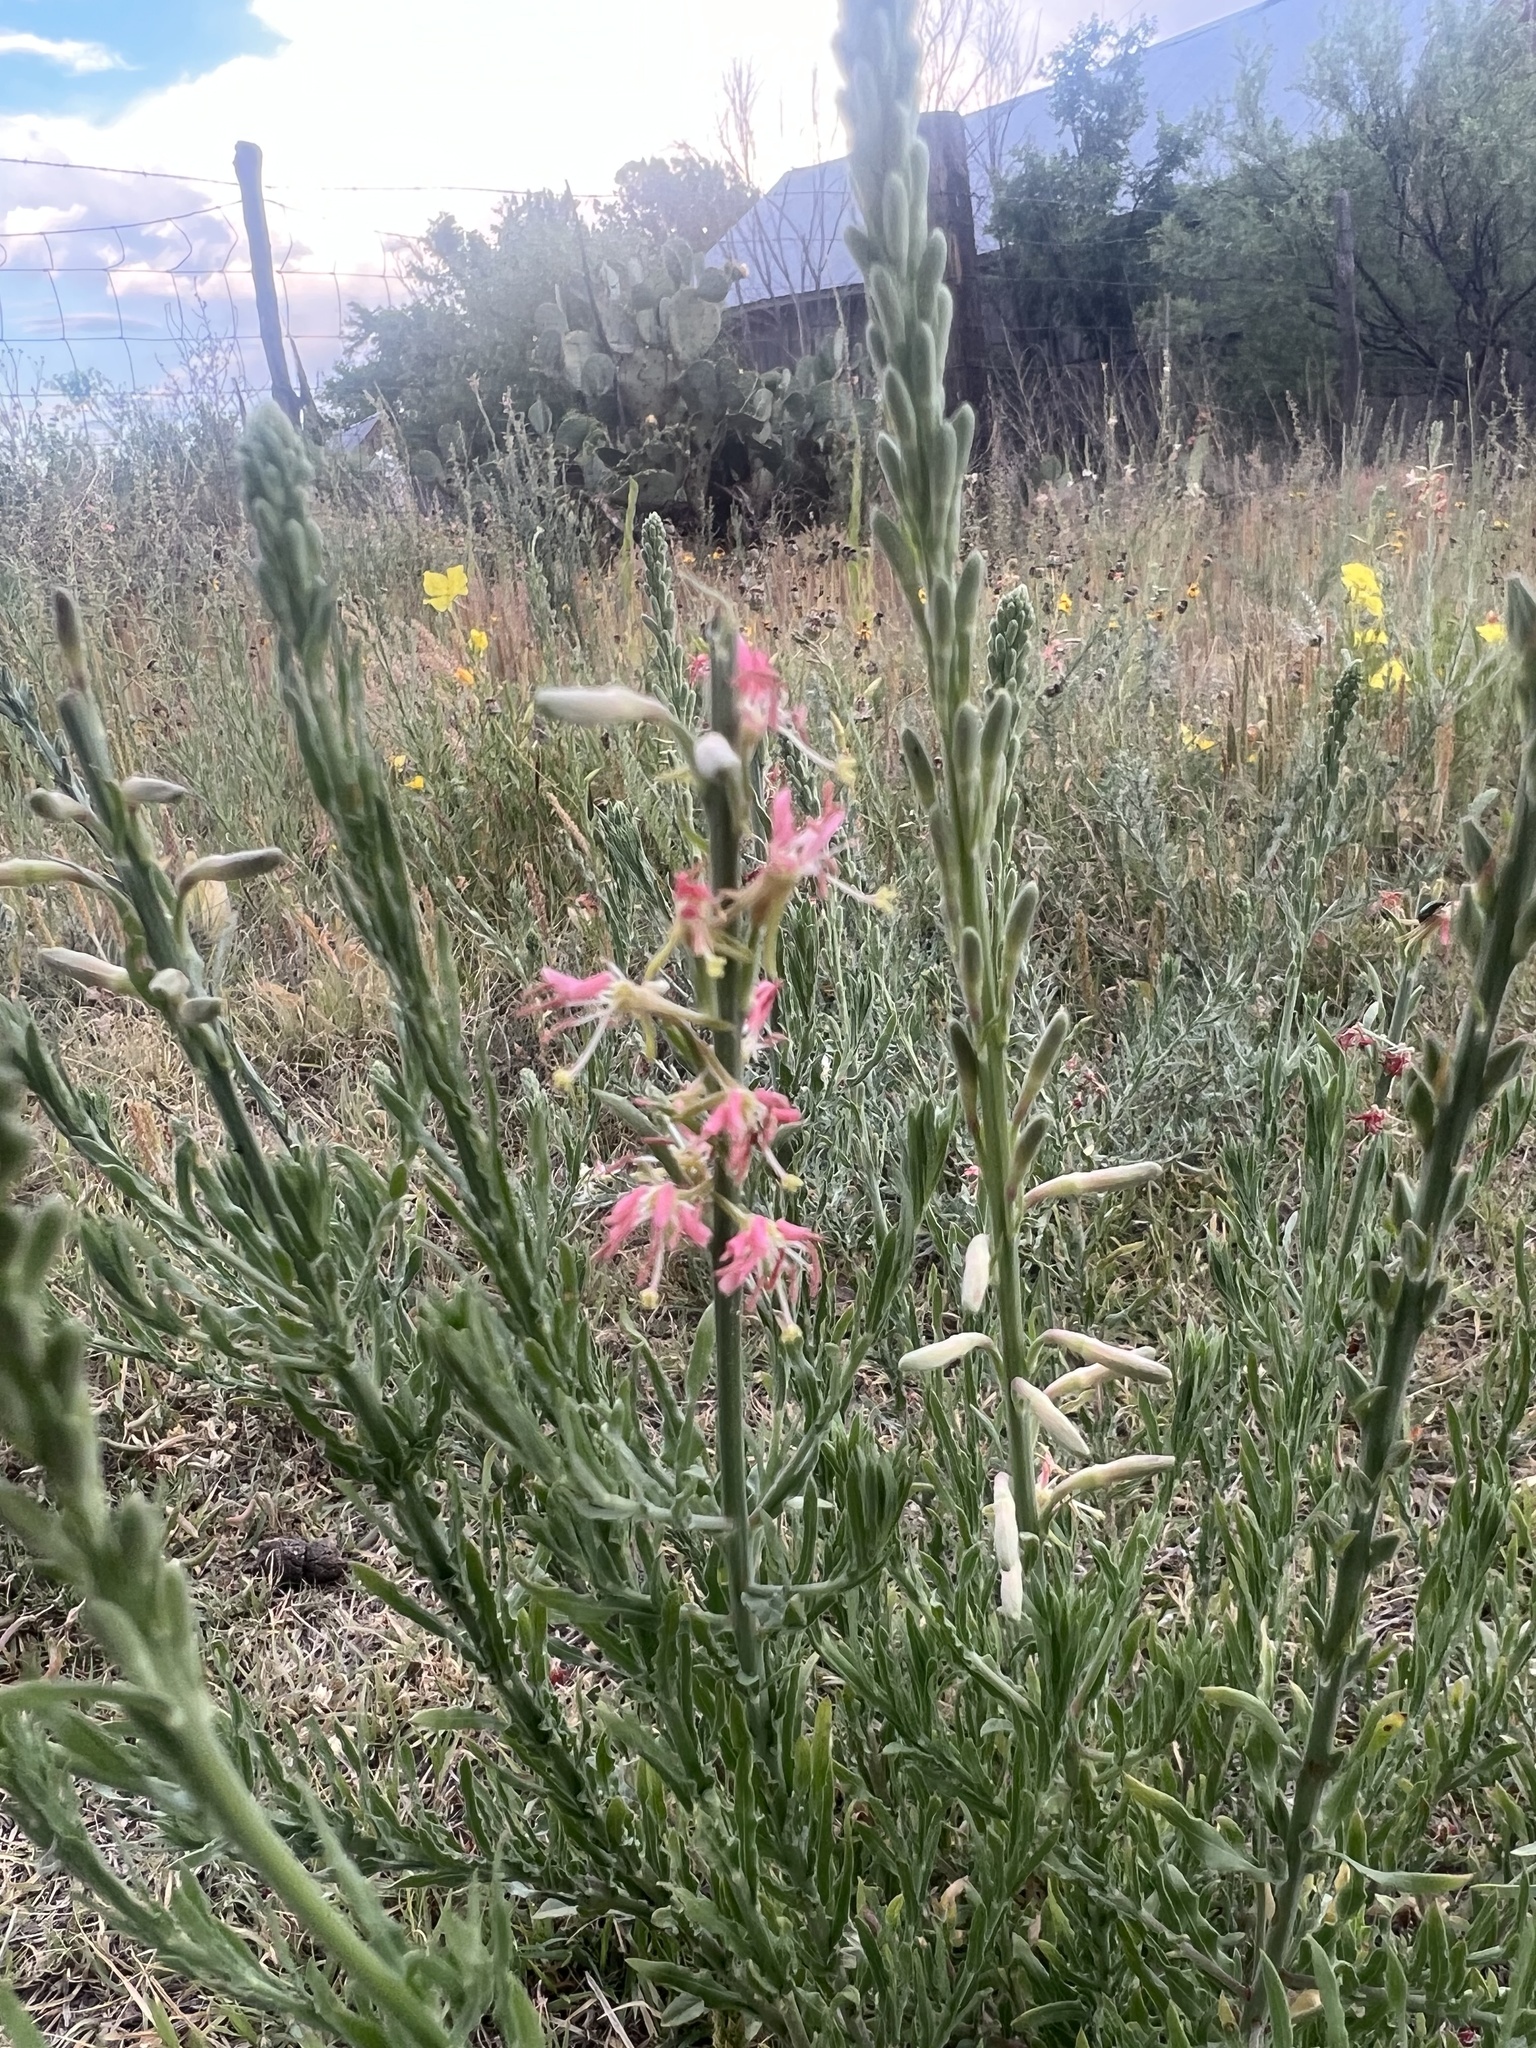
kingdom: Plantae
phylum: Tracheophyta
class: Magnoliopsida
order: Myrtales
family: Onagraceae
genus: Oenothera
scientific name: Oenothera suffrutescens
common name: Scarlet beeblossom
